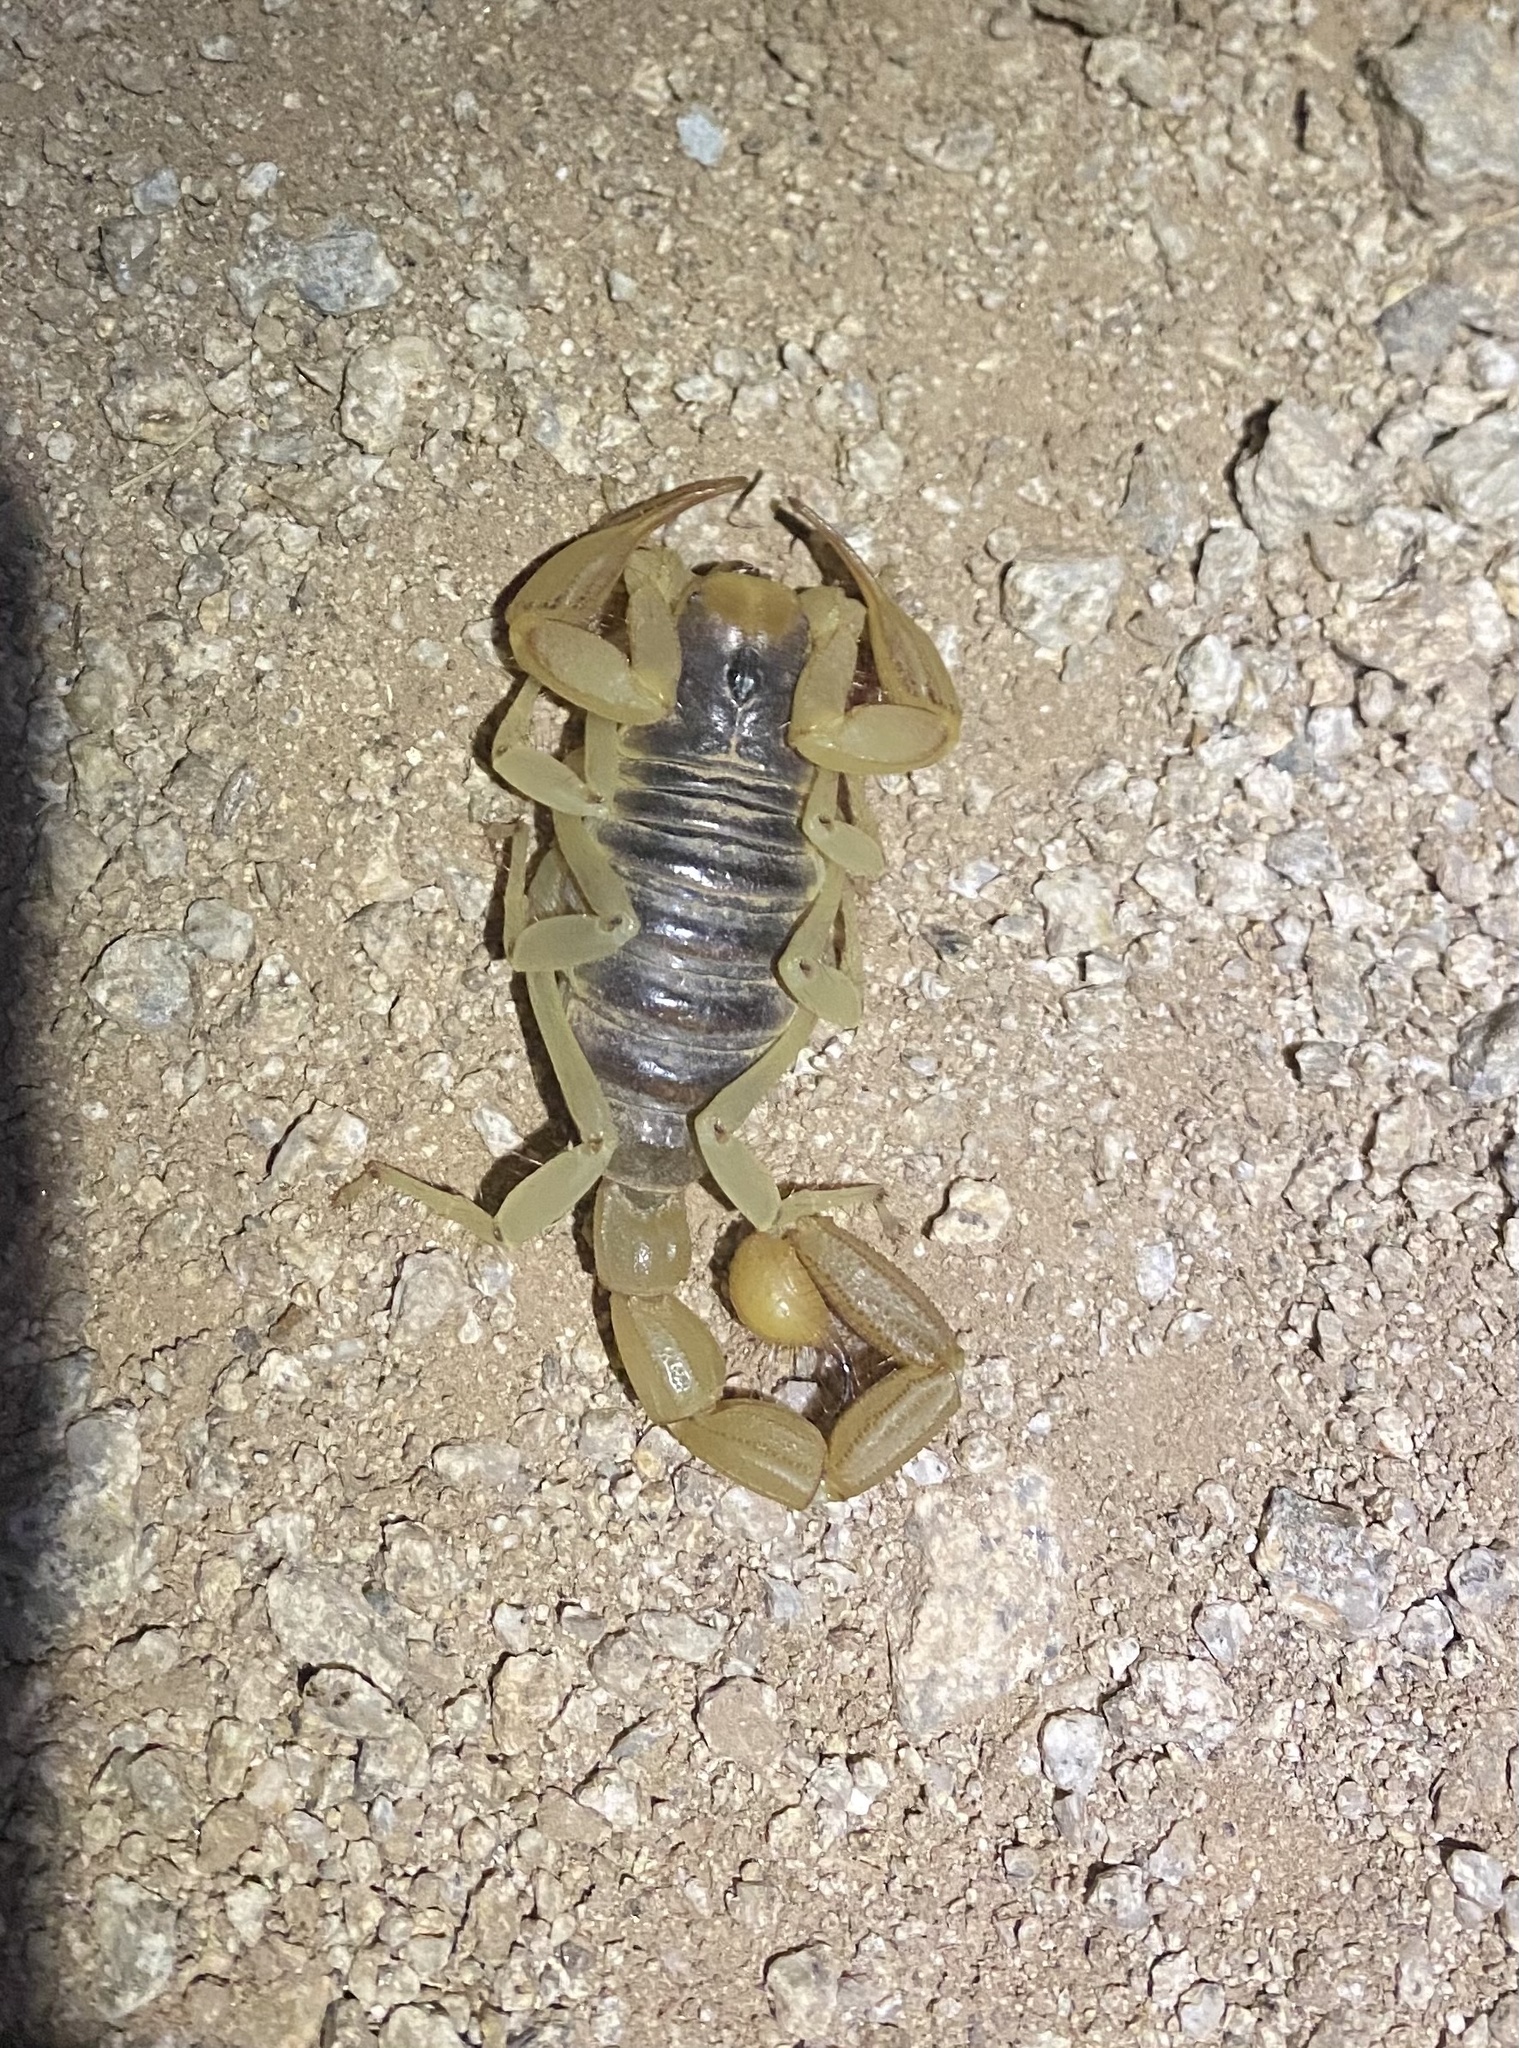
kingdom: Animalia
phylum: Arthropoda
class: Arachnida
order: Scorpiones
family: Hadruridae
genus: Hadrurus
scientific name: Hadrurus arizonensis
